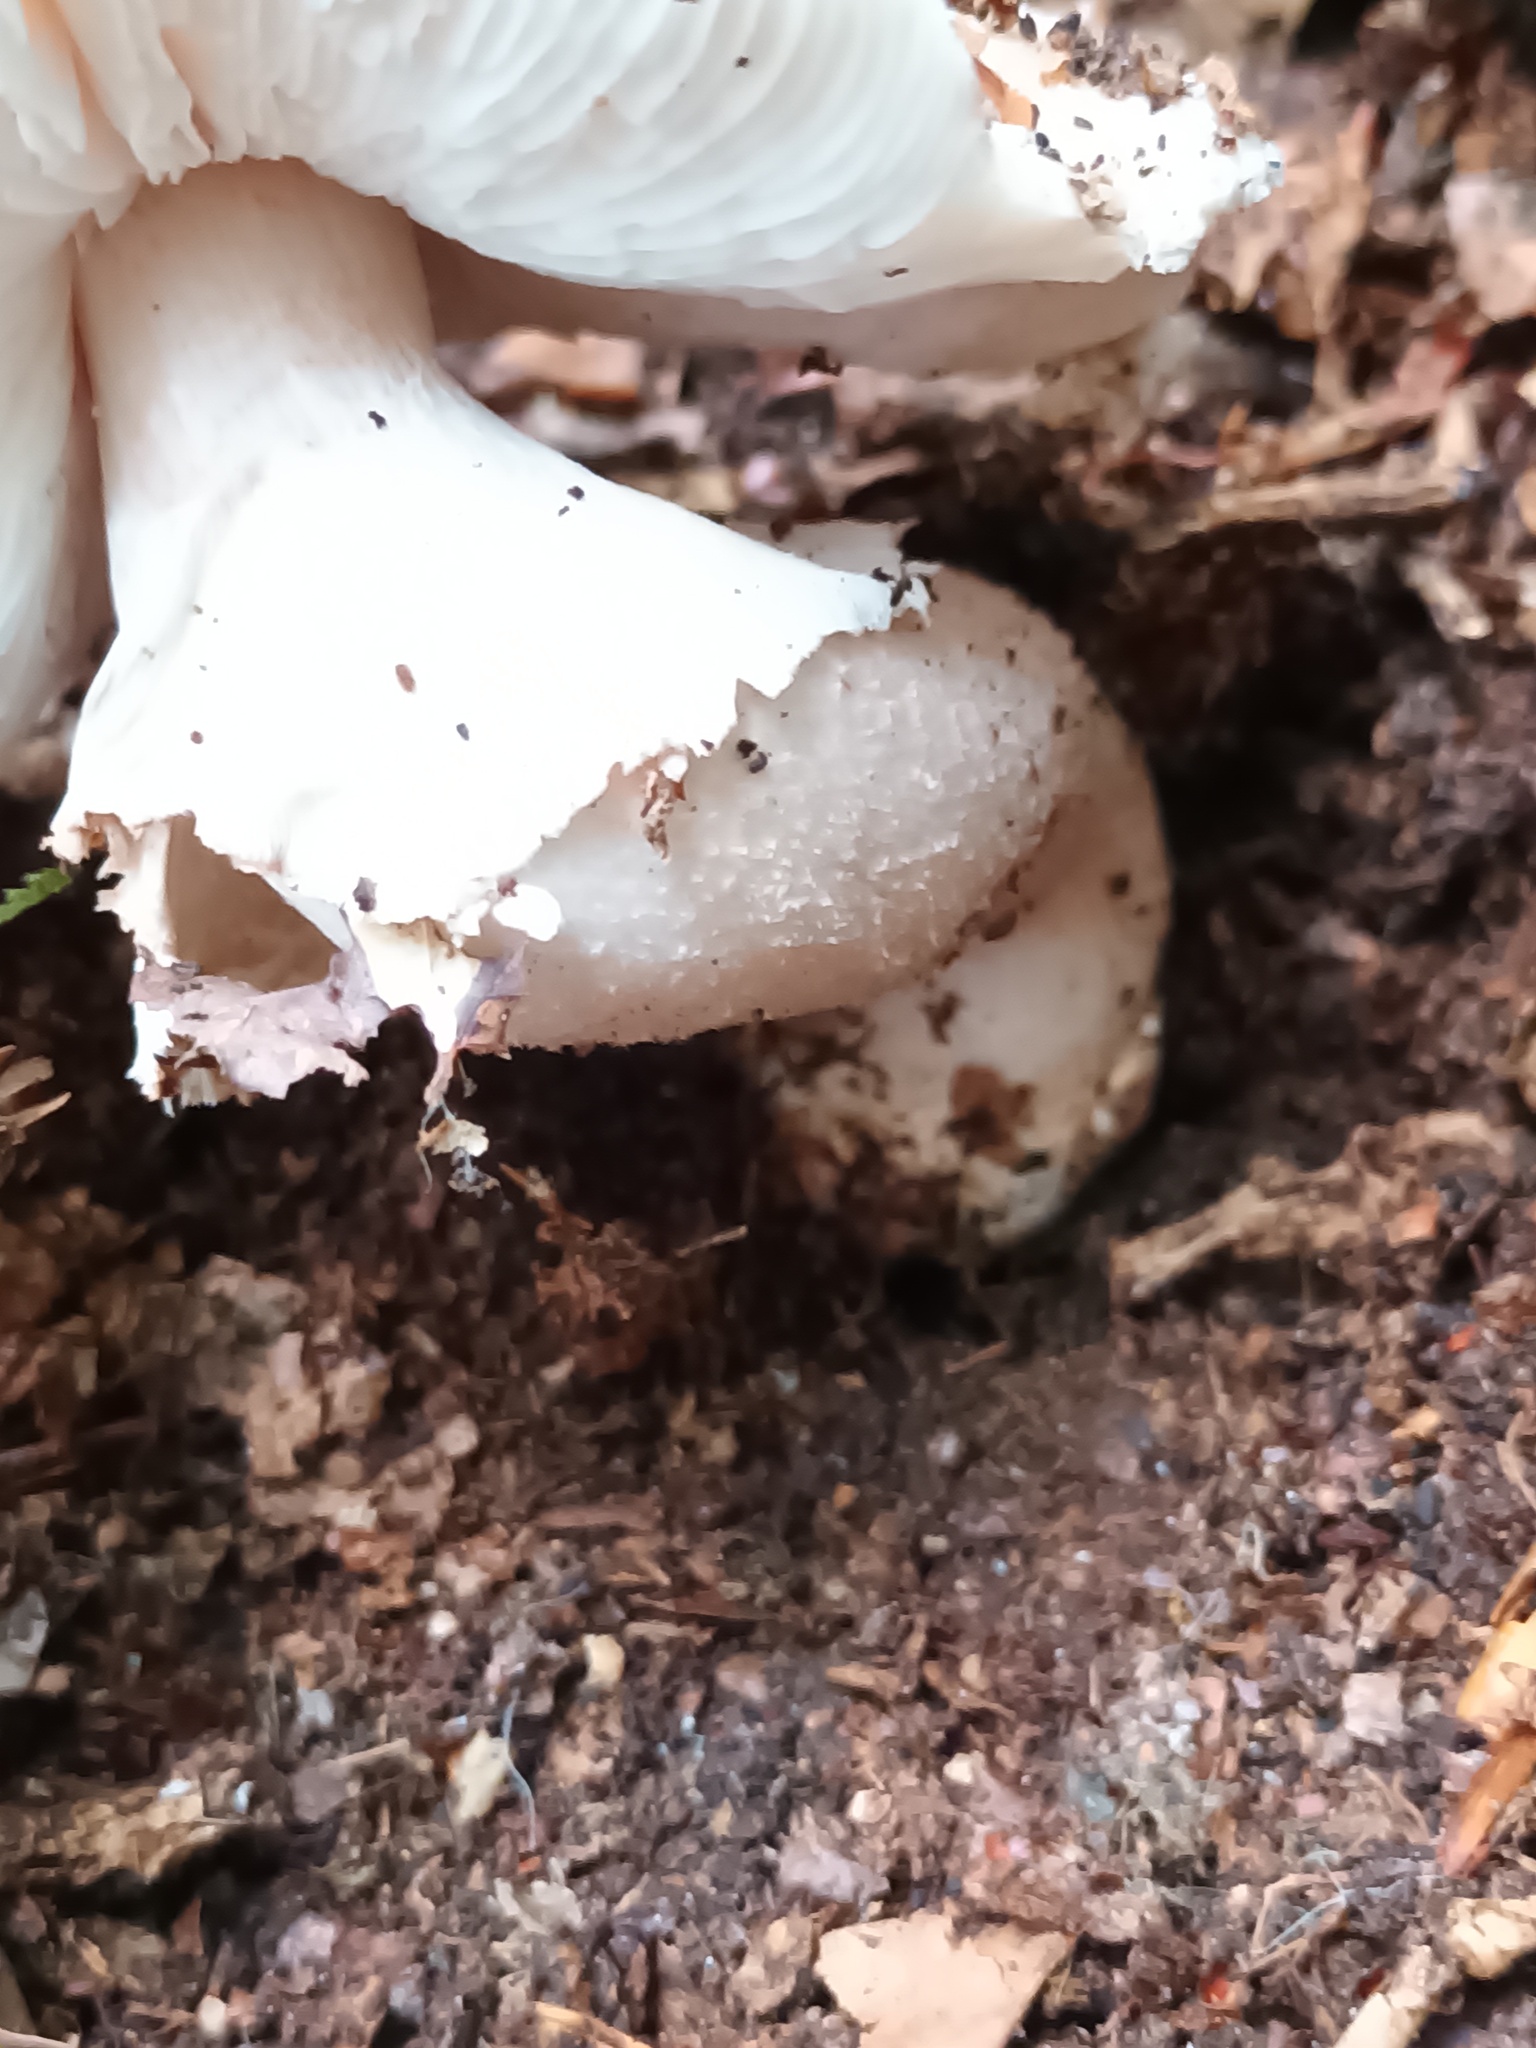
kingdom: Fungi
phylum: Basidiomycota
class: Agaricomycetes
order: Agaricales
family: Amanitaceae
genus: Amanita
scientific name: Amanita rubescens
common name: Blusher
